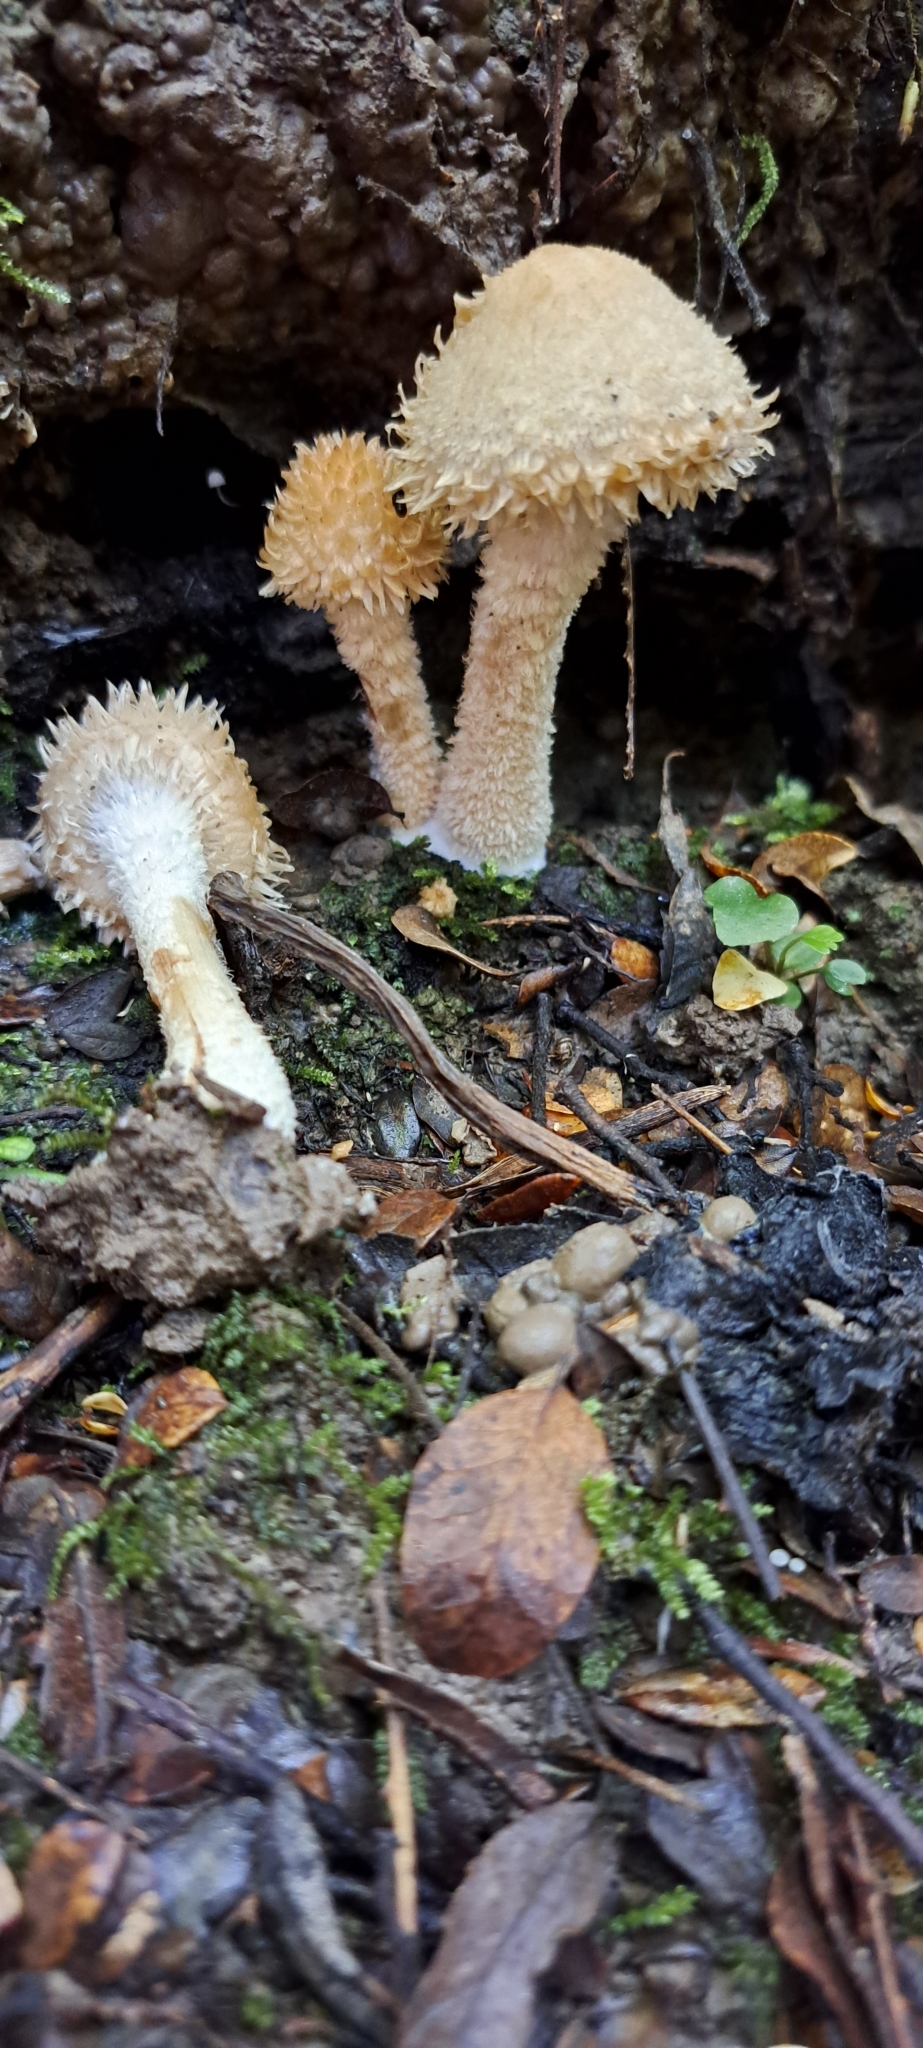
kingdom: Fungi
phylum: Basidiomycota
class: Agaricomycetes
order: Agaricales
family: Psathyrellaceae
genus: Psathyrella
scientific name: Psathyrella asperospora
